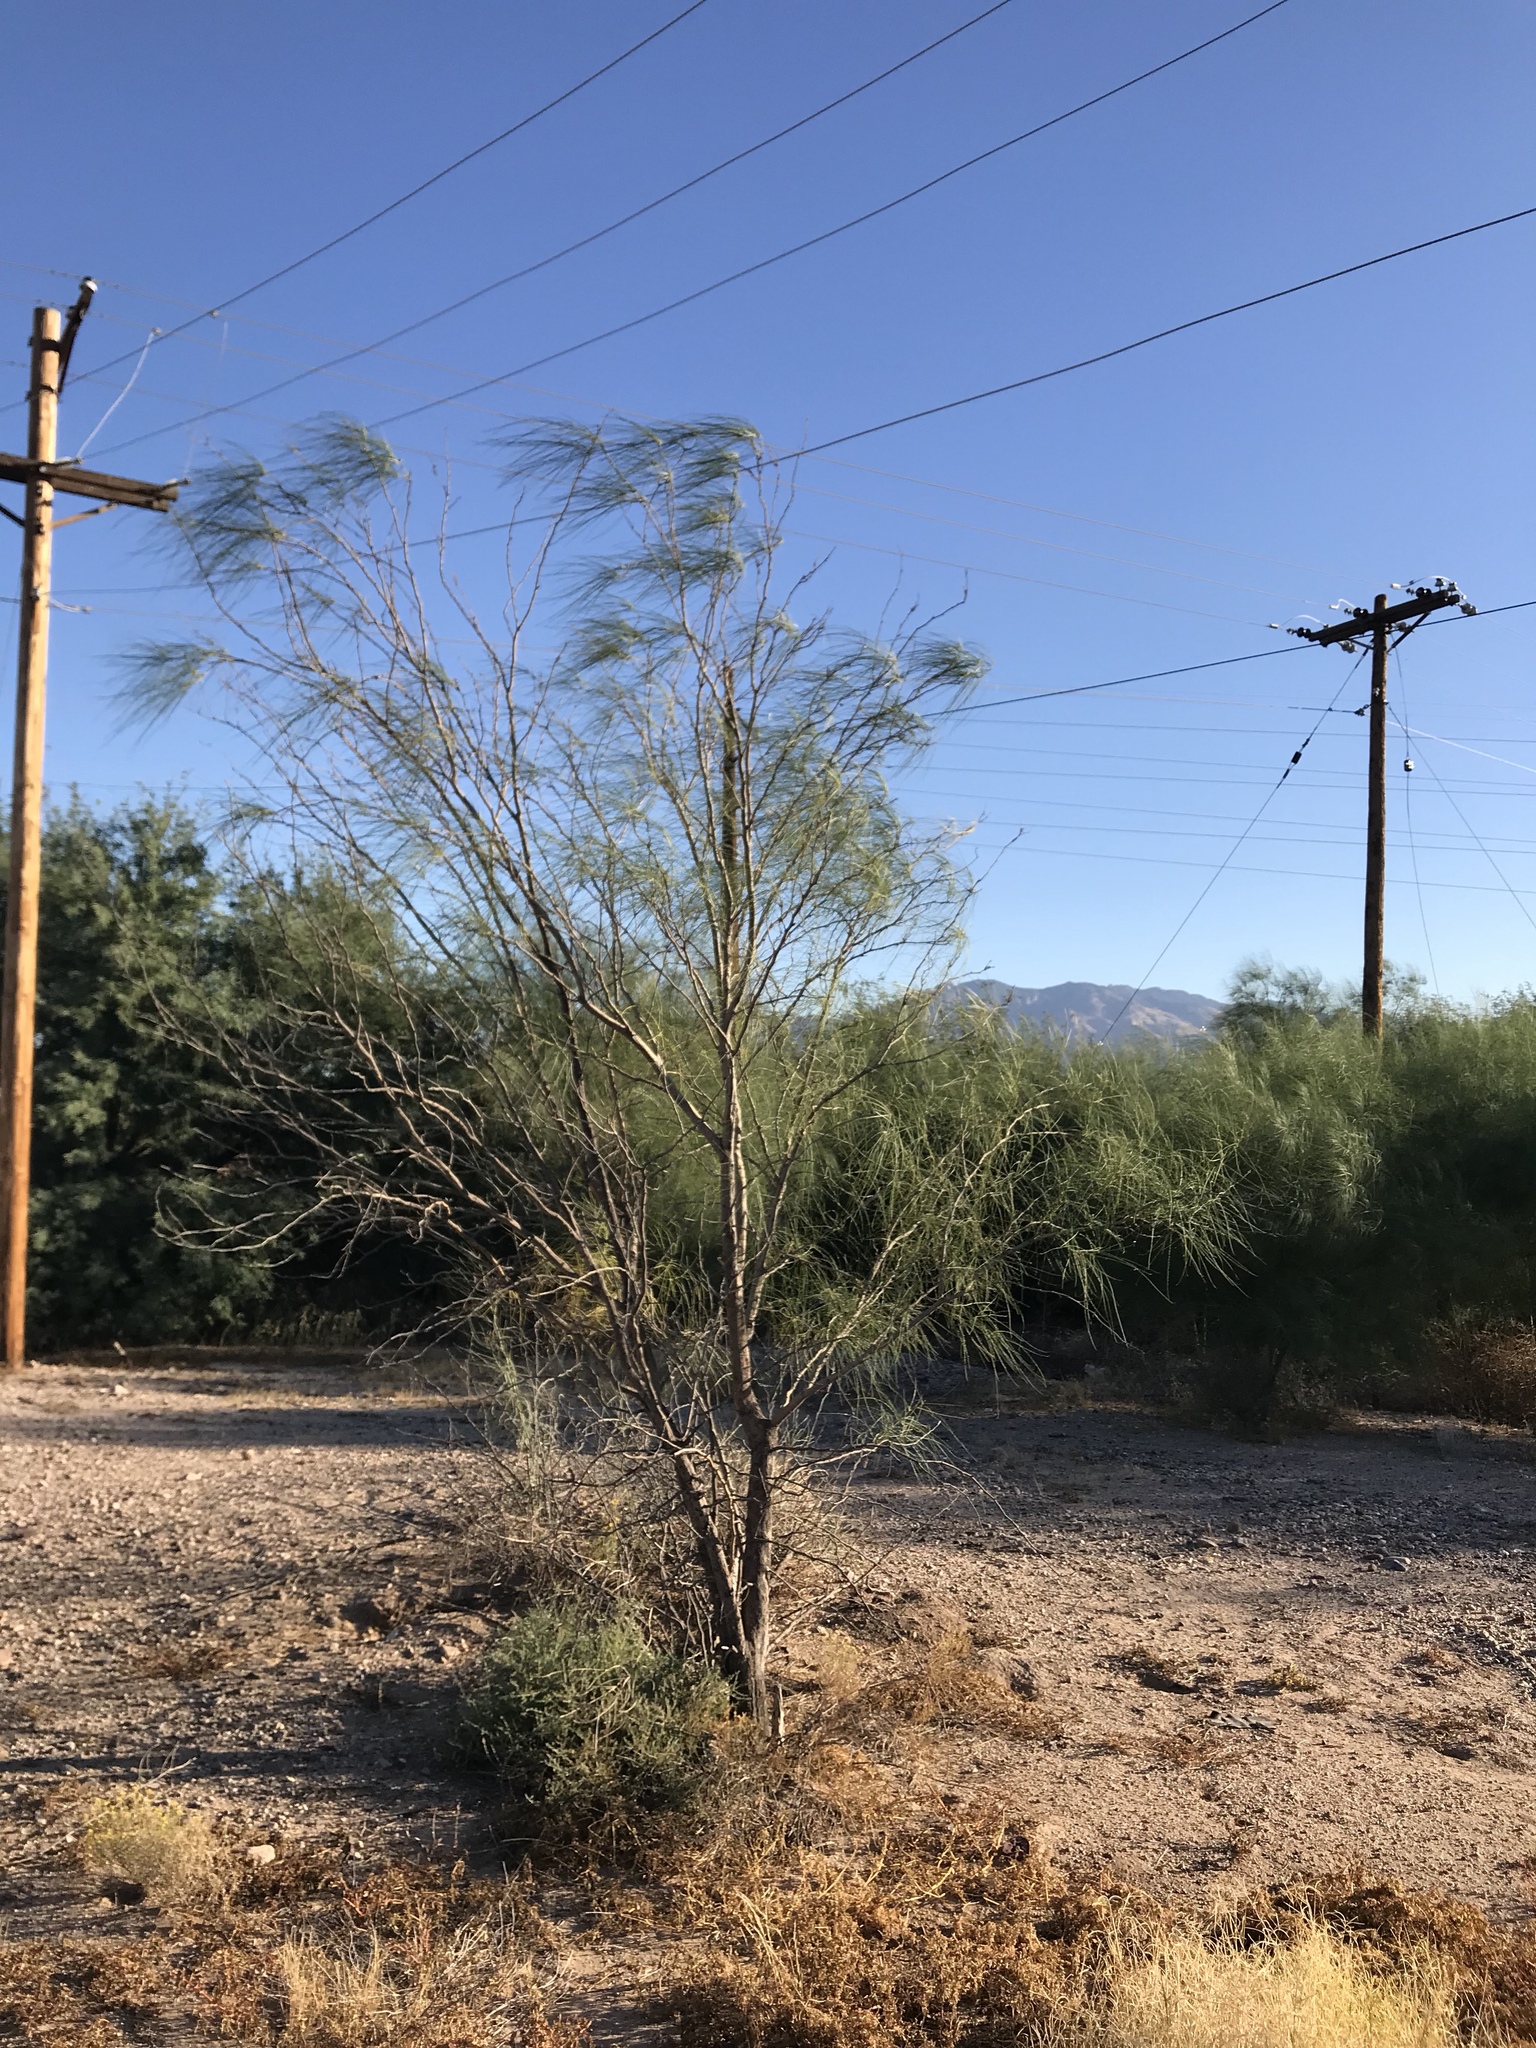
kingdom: Plantae
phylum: Tracheophyta
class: Magnoliopsida
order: Fabales
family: Fabaceae
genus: Parkinsonia
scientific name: Parkinsonia aculeata
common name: Jerusalem thorn
